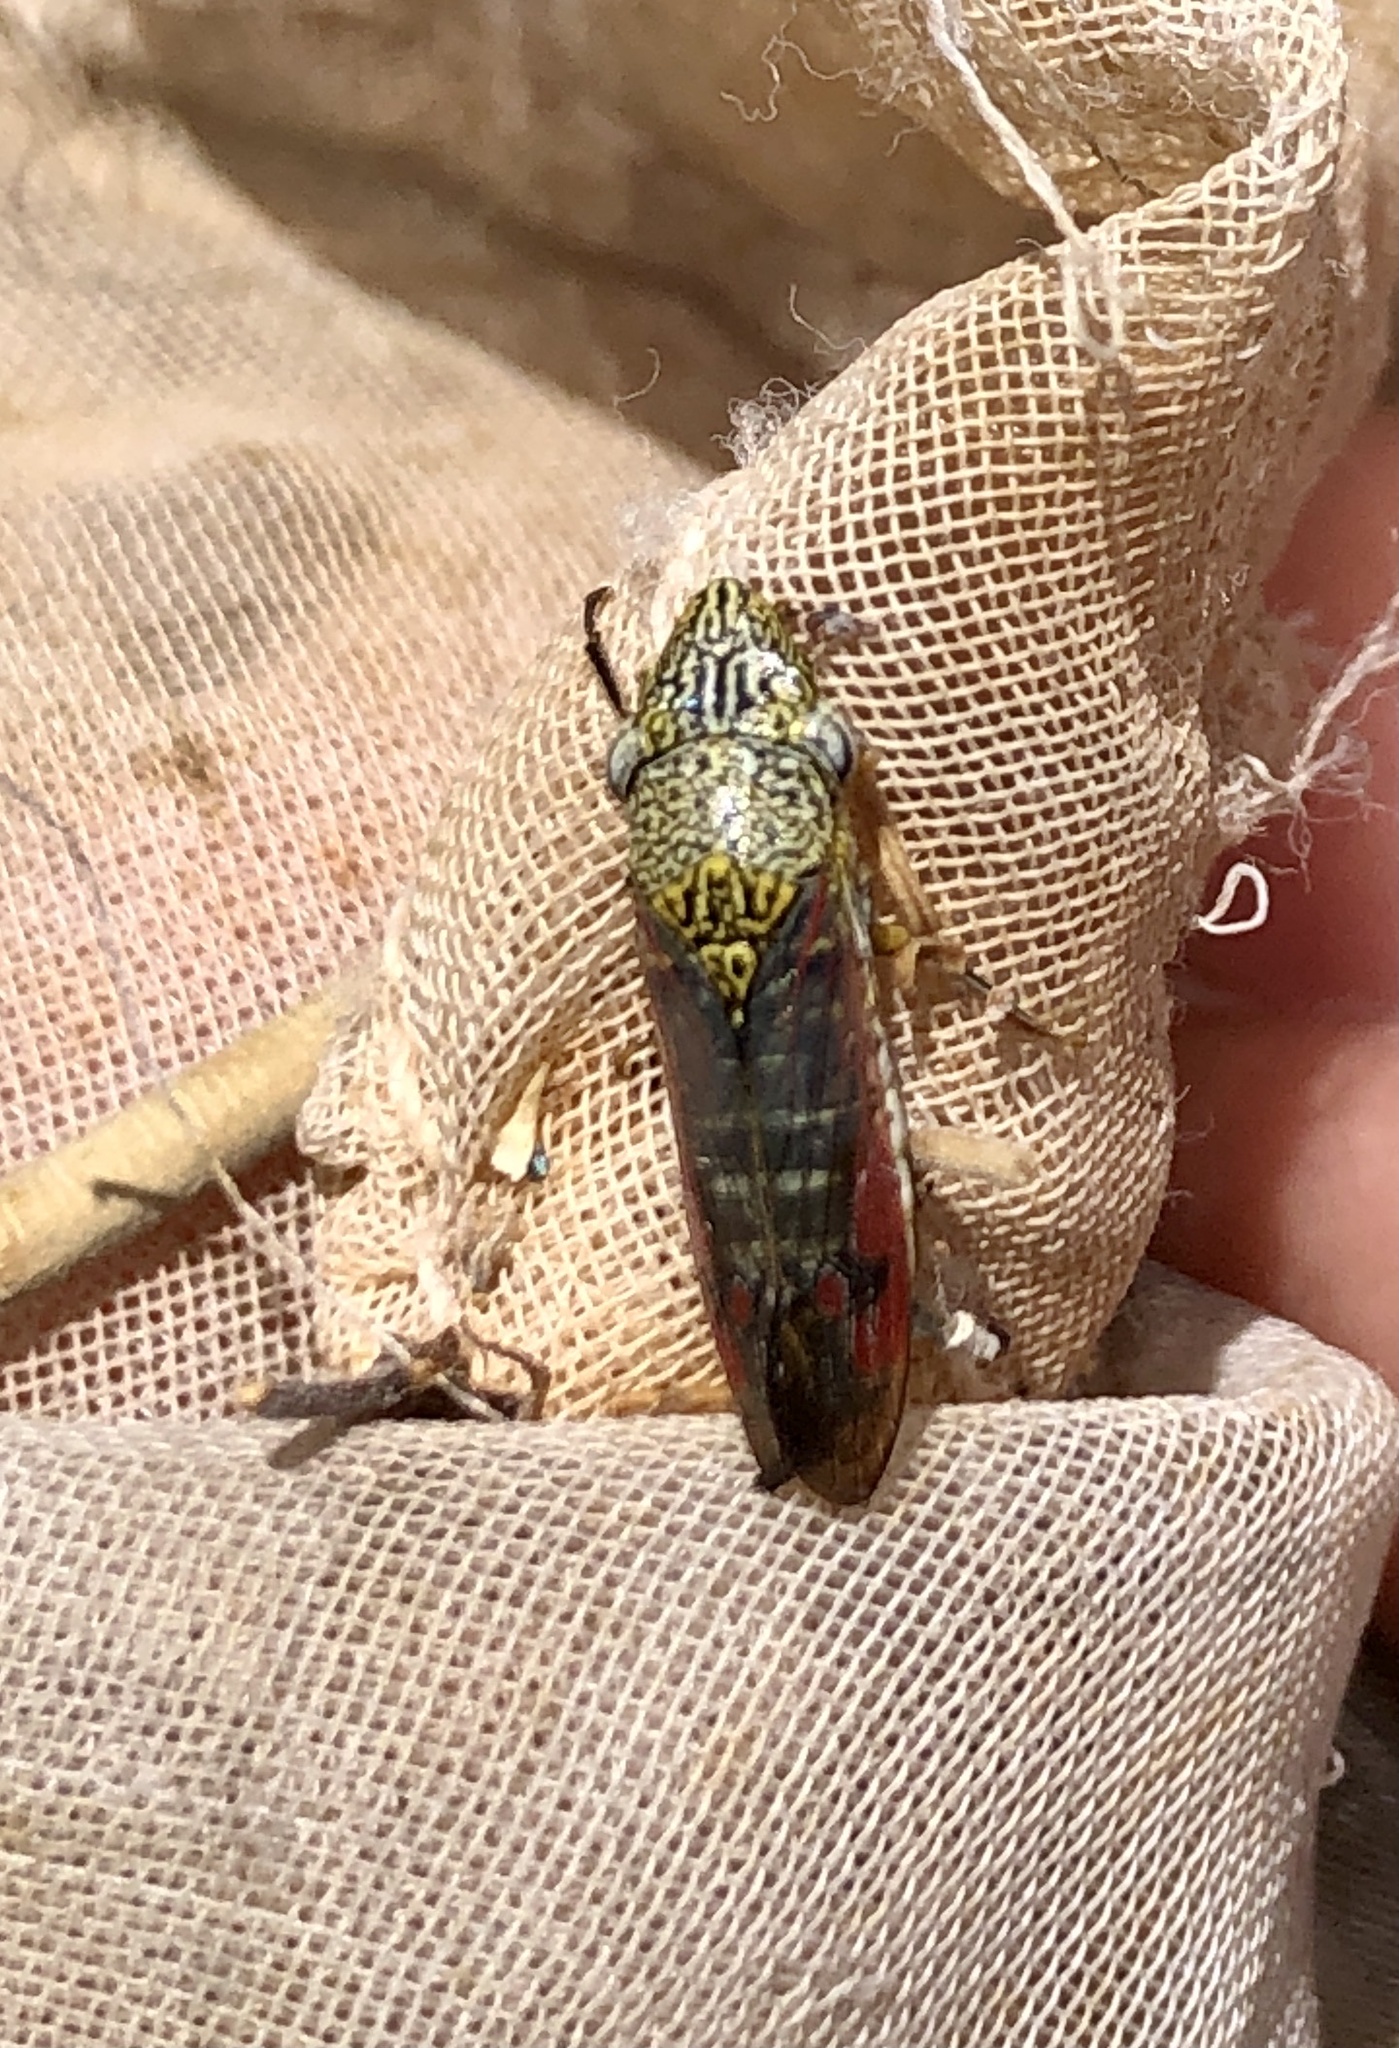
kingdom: Animalia
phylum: Arthropoda
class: Insecta
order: Hemiptera
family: Cicadellidae
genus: Homalodisca
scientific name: Homalodisca liturata
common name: Lacertate sharpshooter
